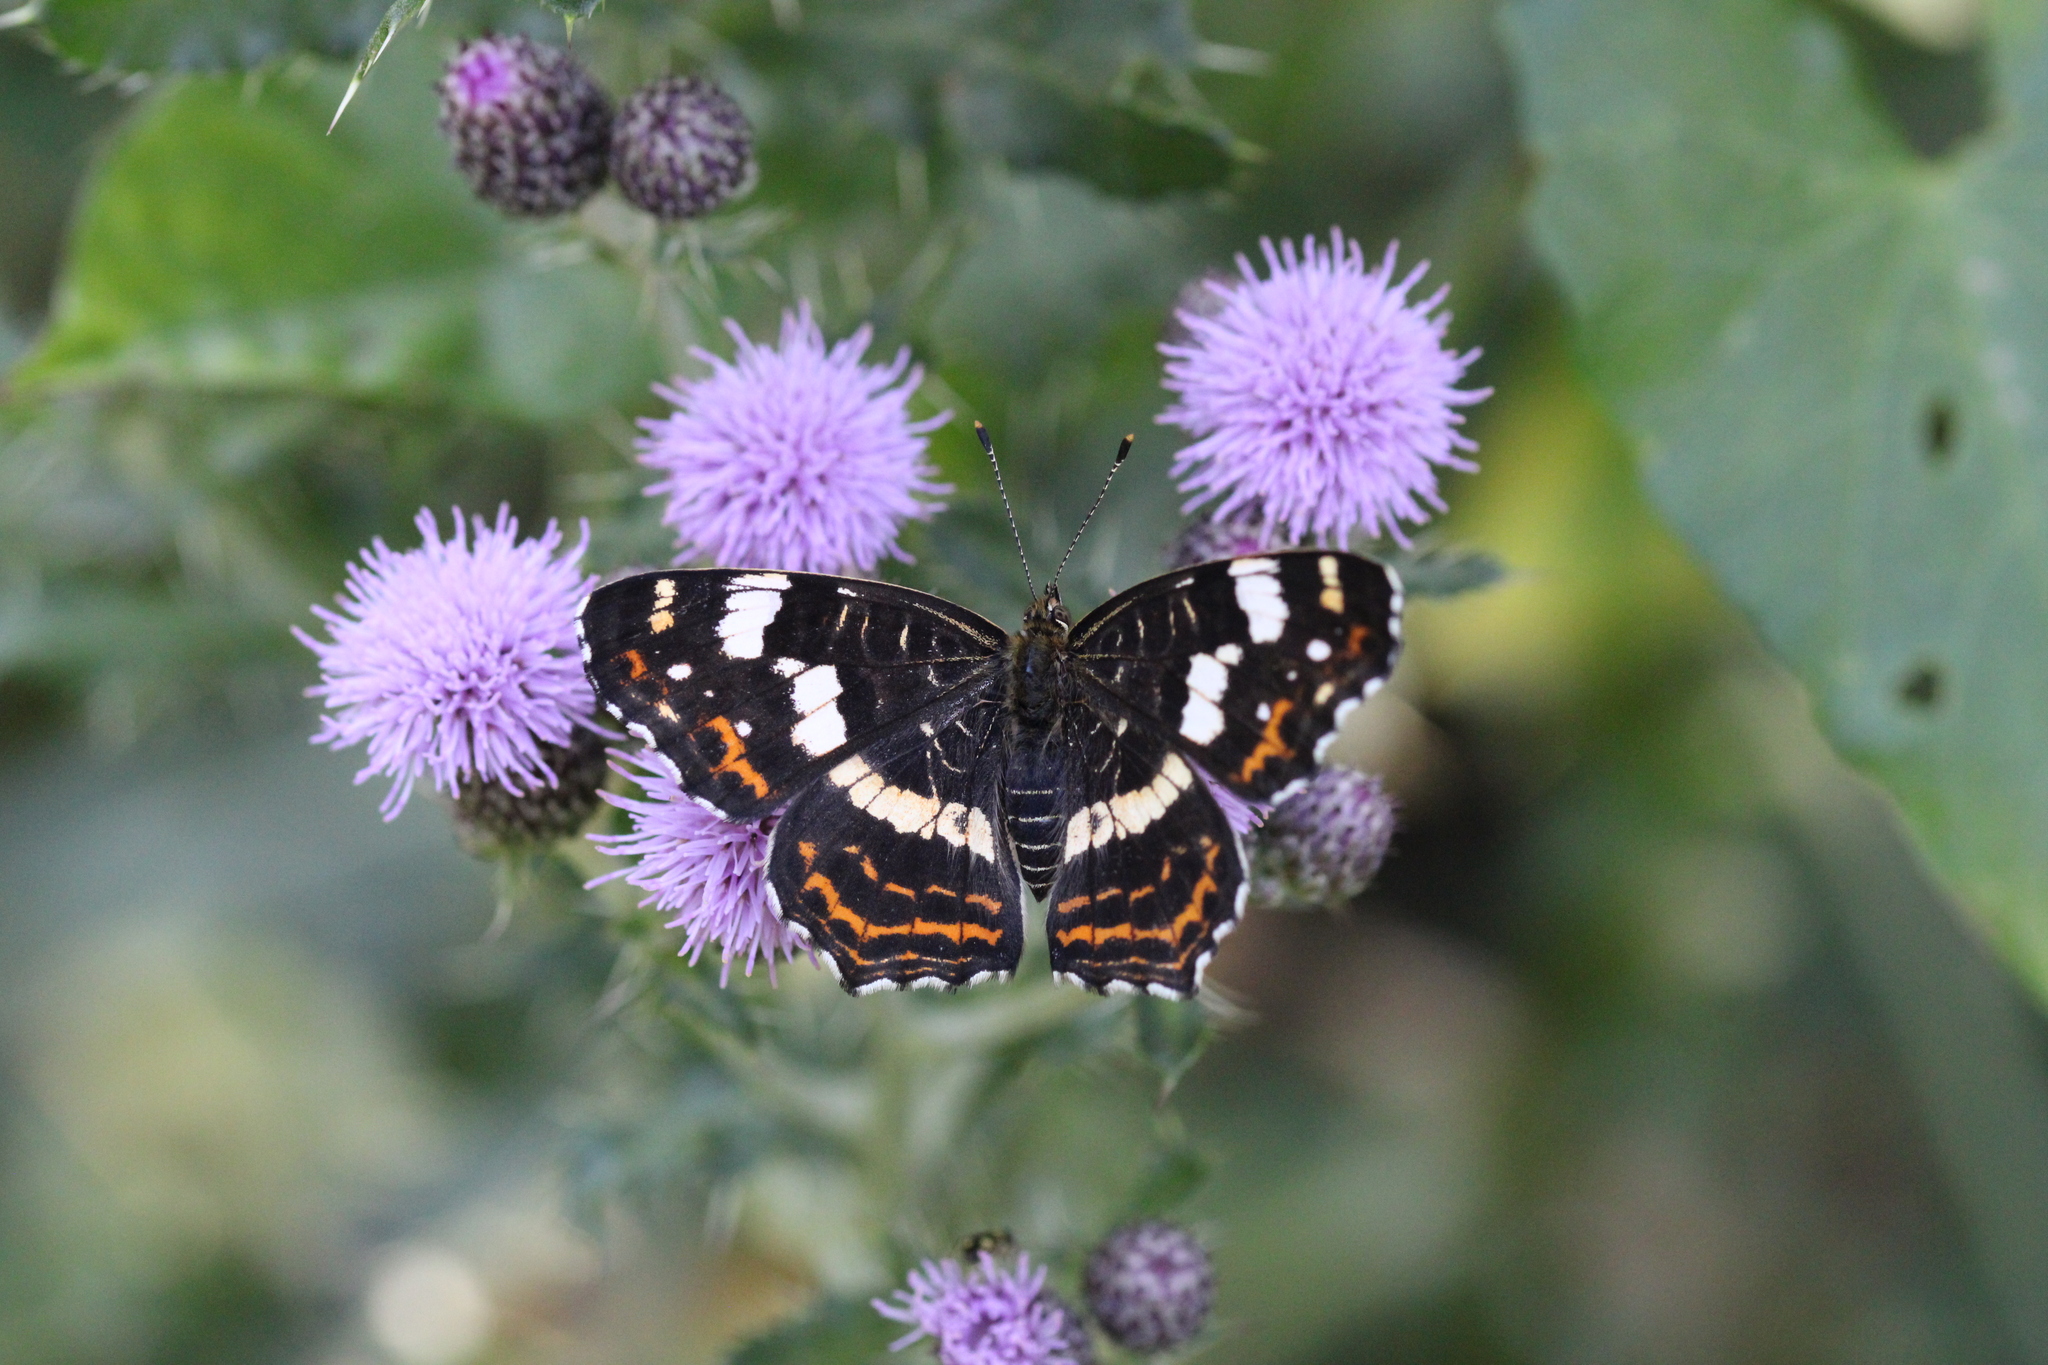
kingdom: Animalia
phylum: Arthropoda
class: Insecta
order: Lepidoptera
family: Nymphalidae
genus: Araschnia
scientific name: Araschnia levana
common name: Map butterfly
